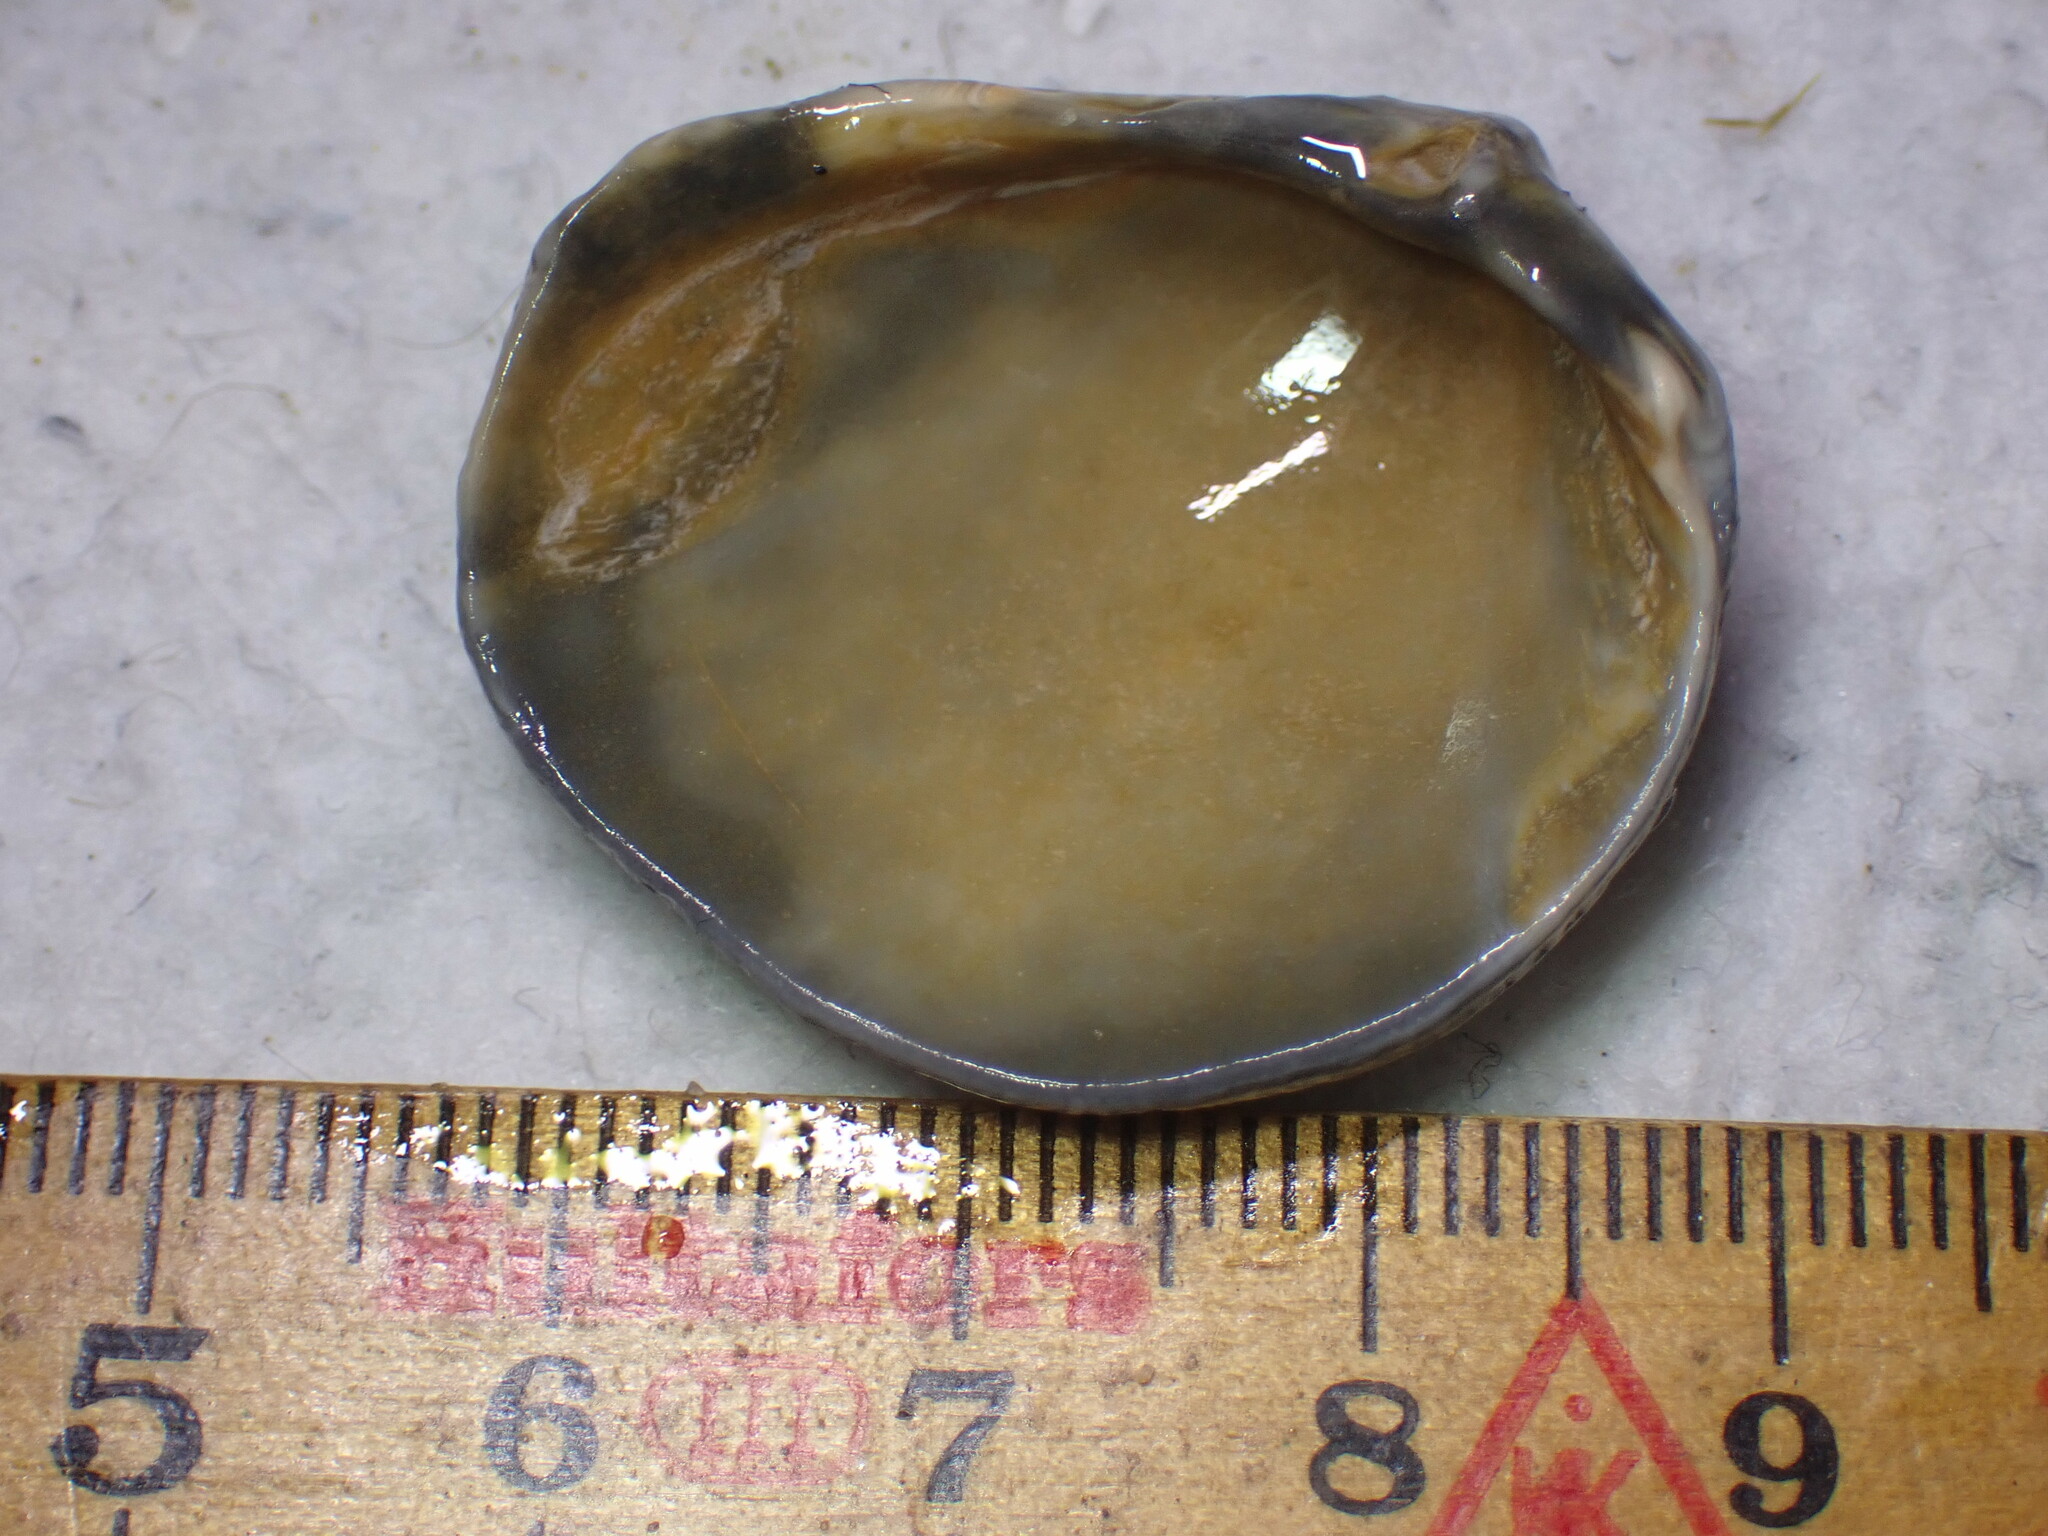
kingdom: Animalia
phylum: Mollusca
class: Bivalvia
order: Cardiida
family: Cardiidae
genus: Laevicardium
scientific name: Laevicardium crassum
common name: Norway cockle
